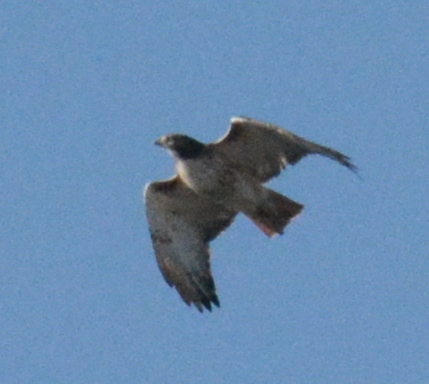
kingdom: Animalia
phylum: Chordata
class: Aves
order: Accipitriformes
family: Accipitridae
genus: Buteo
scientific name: Buteo jamaicensis
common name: Red-tailed hawk
